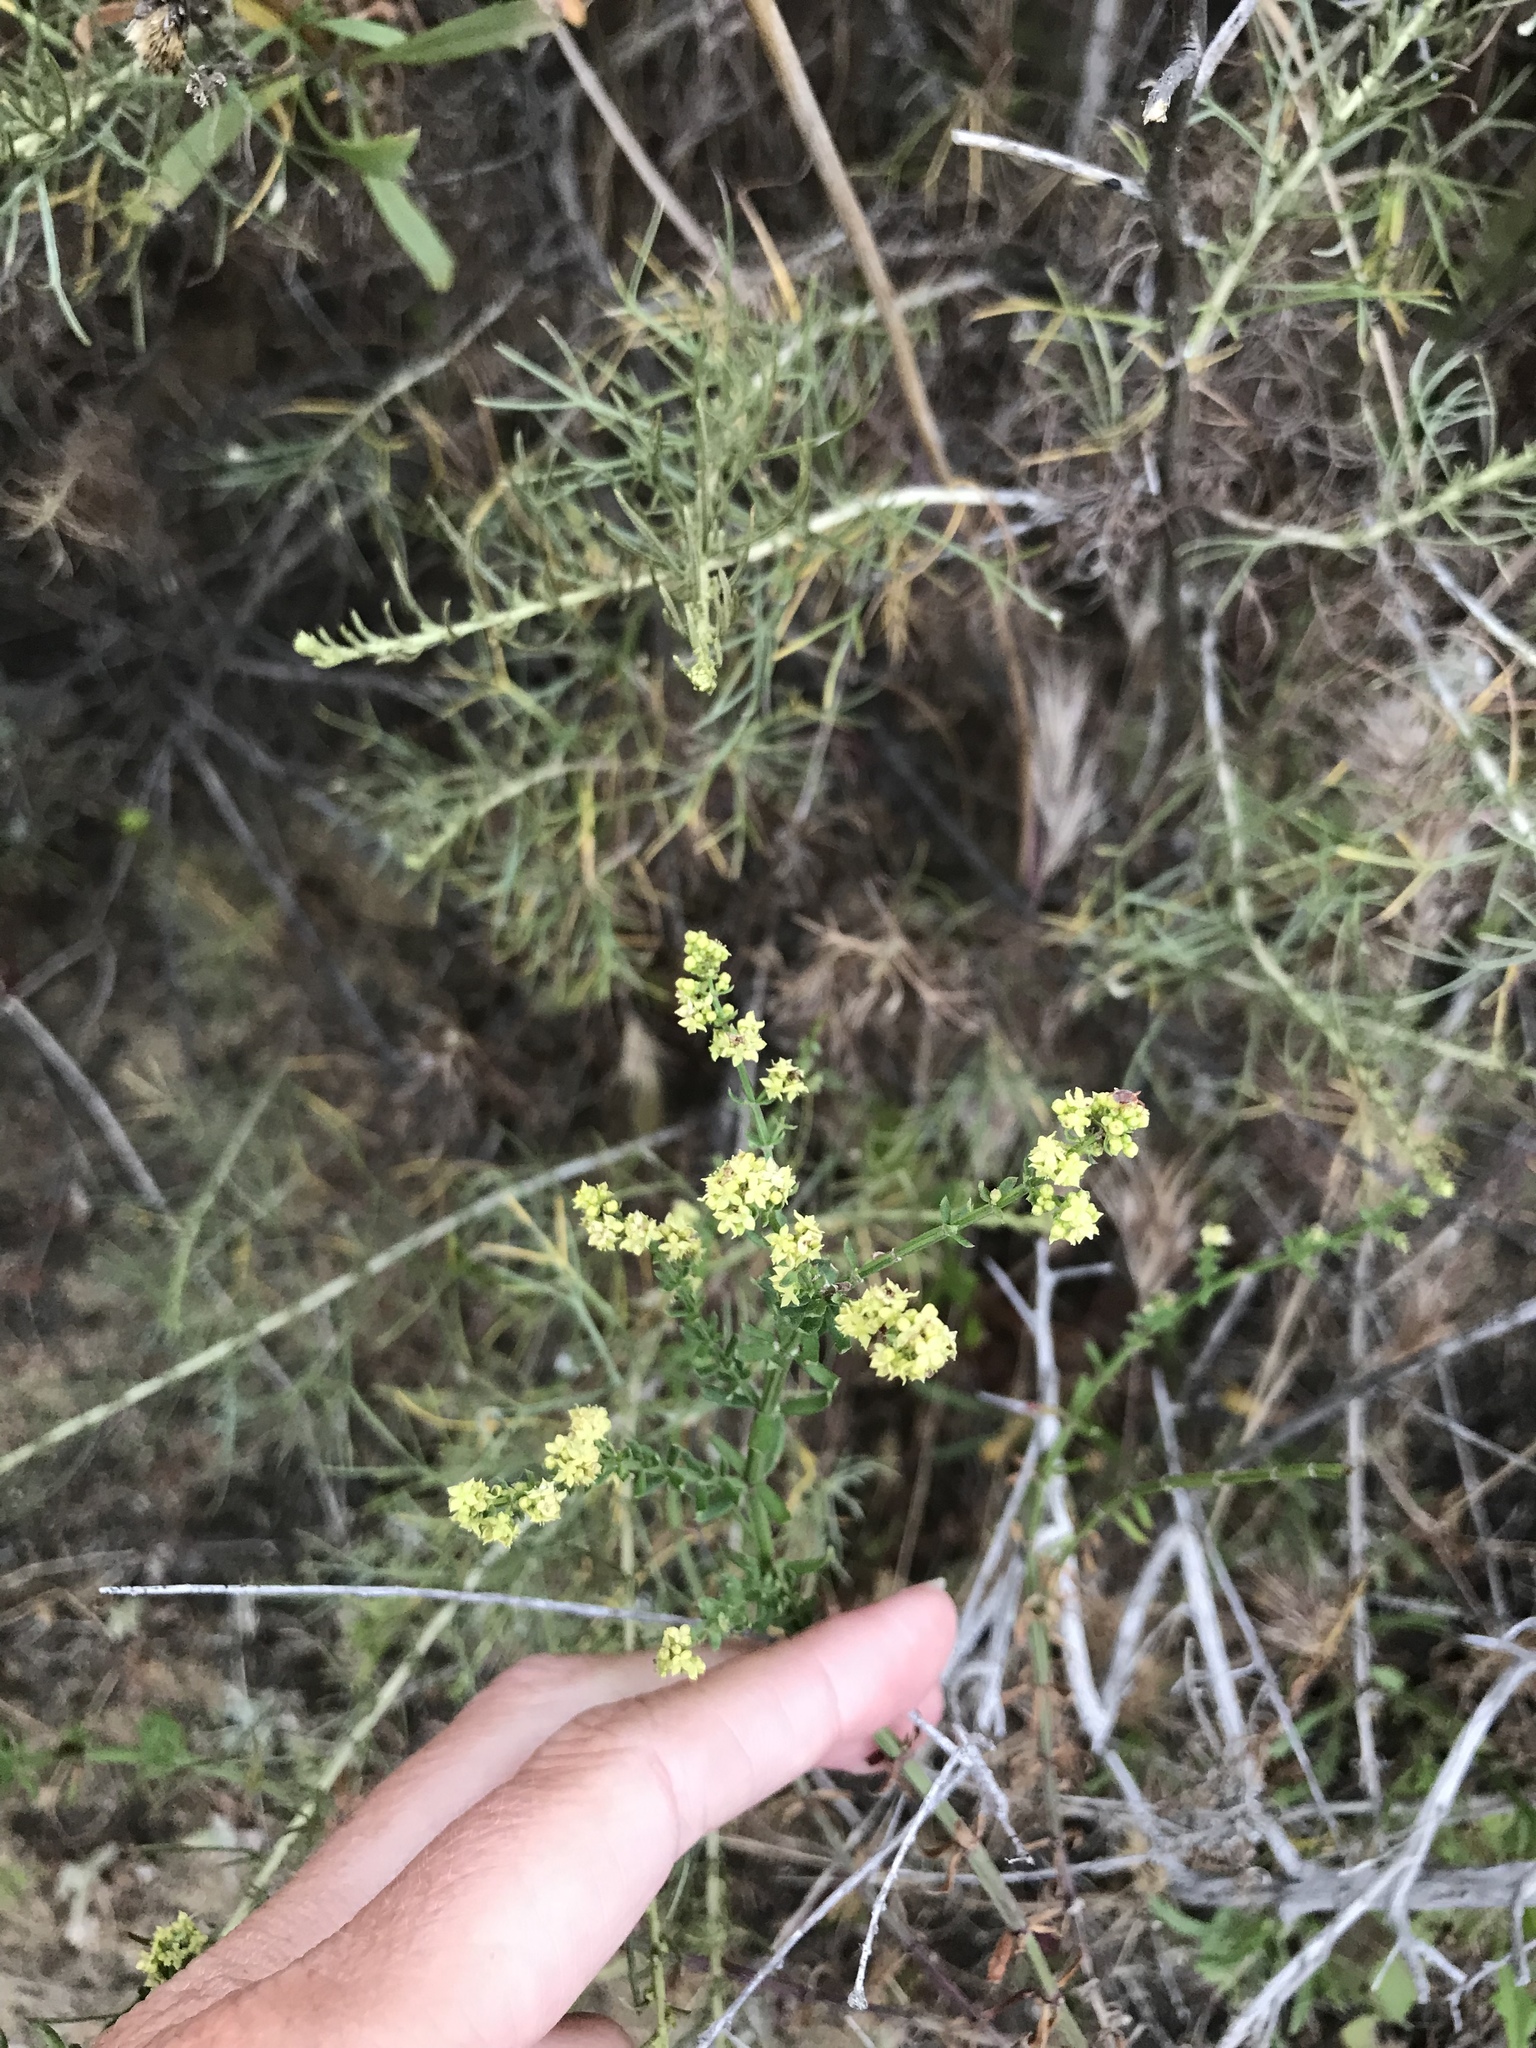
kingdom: Plantae
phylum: Tracheophyta
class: Magnoliopsida
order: Gentianales
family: Rubiaceae
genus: Galium
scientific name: Galium angustifolium
